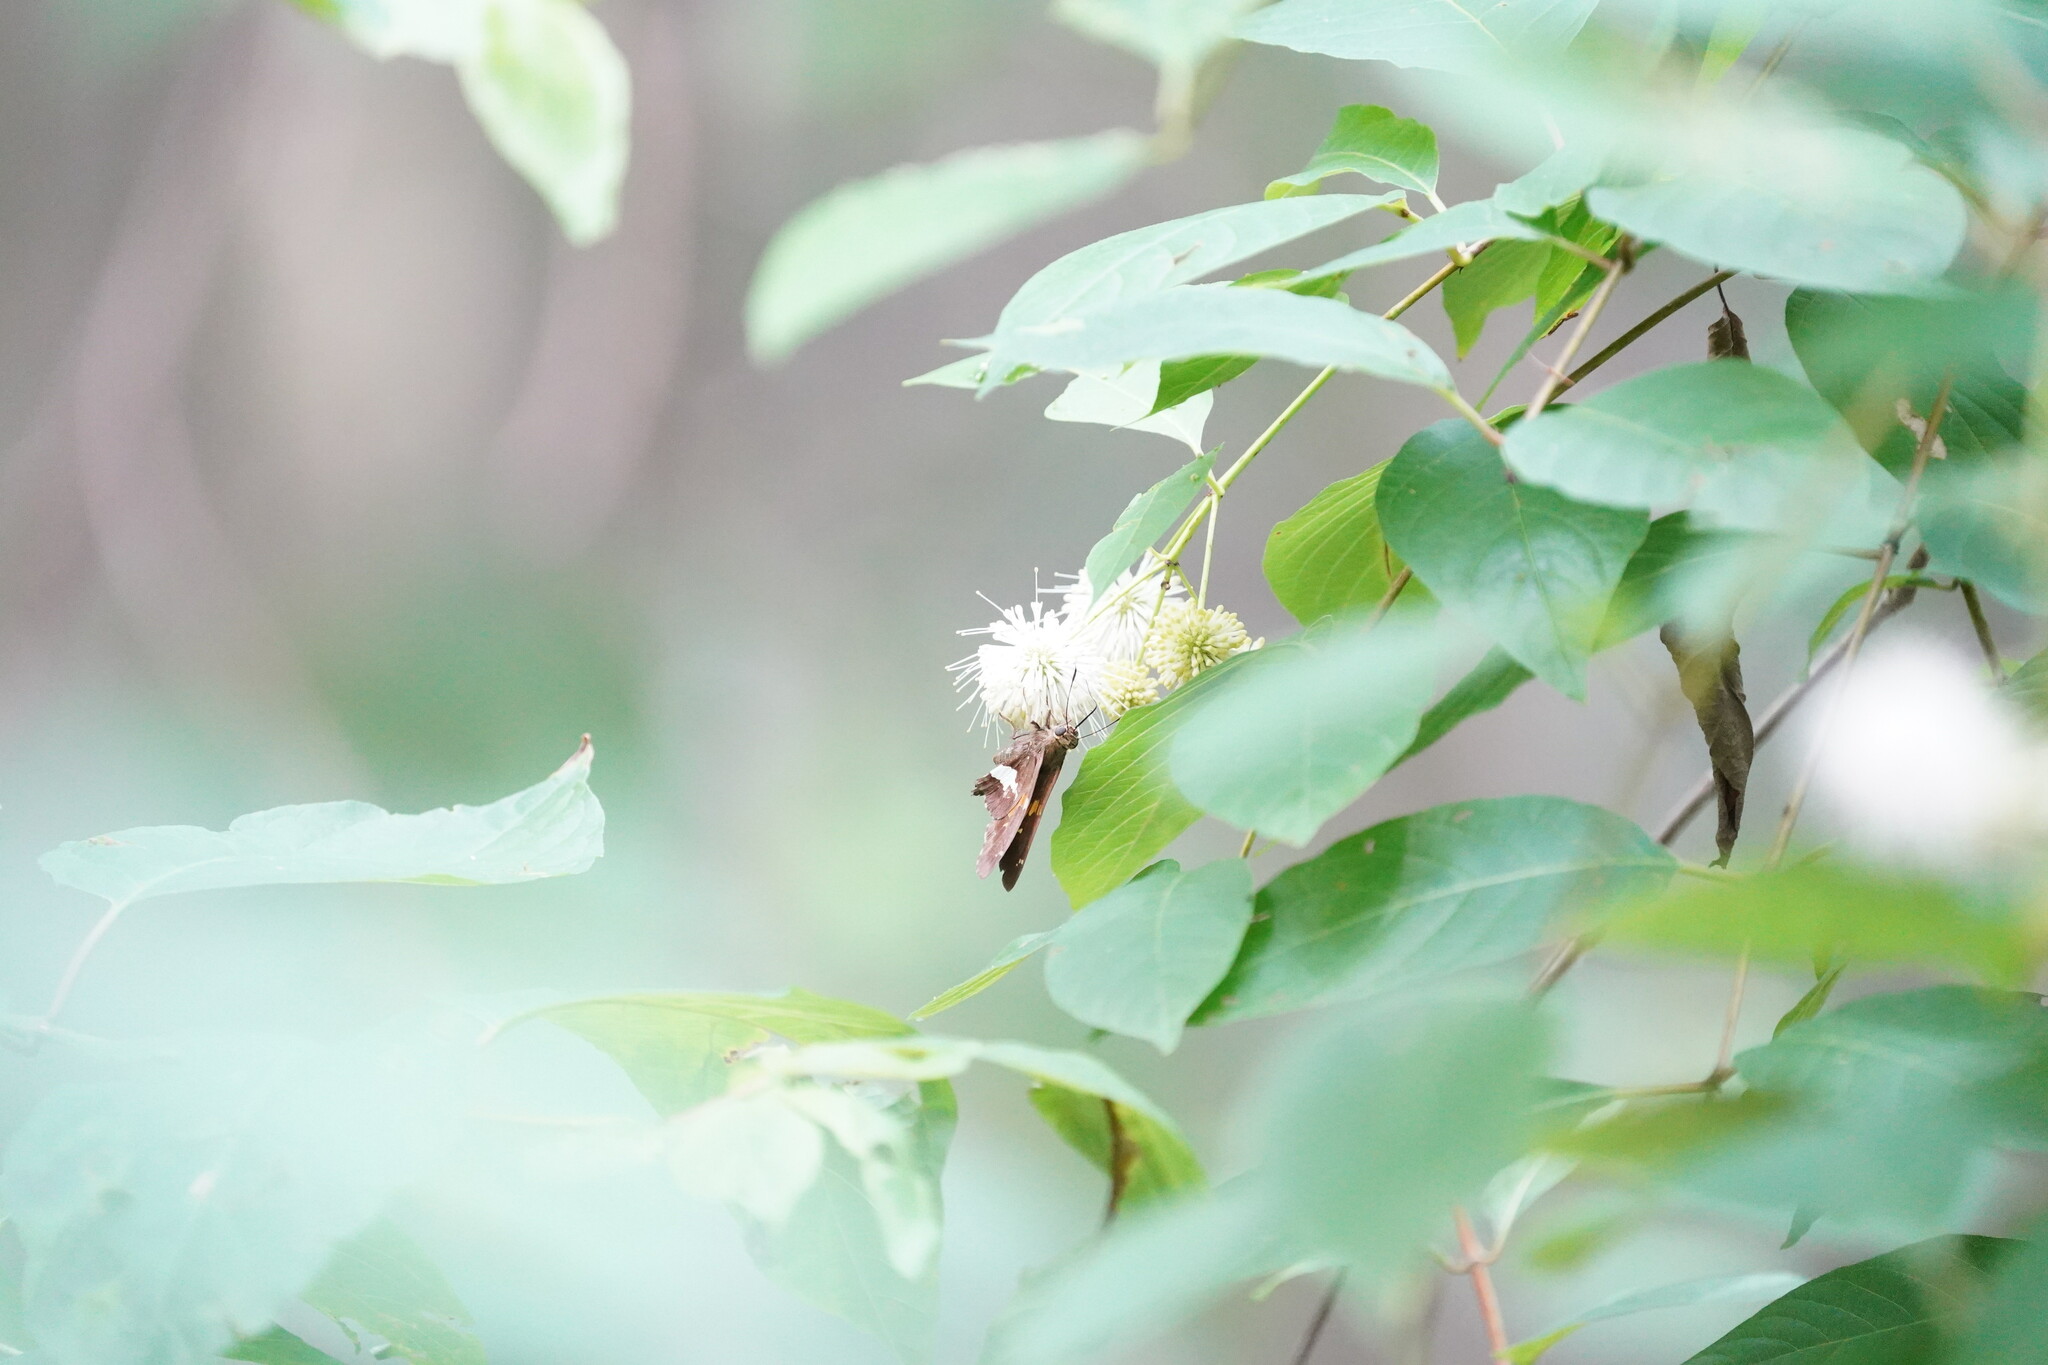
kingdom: Animalia
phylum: Arthropoda
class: Insecta
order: Lepidoptera
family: Hesperiidae
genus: Epargyreus
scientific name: Epargyreus clarus
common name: Silver-spotted skipper
